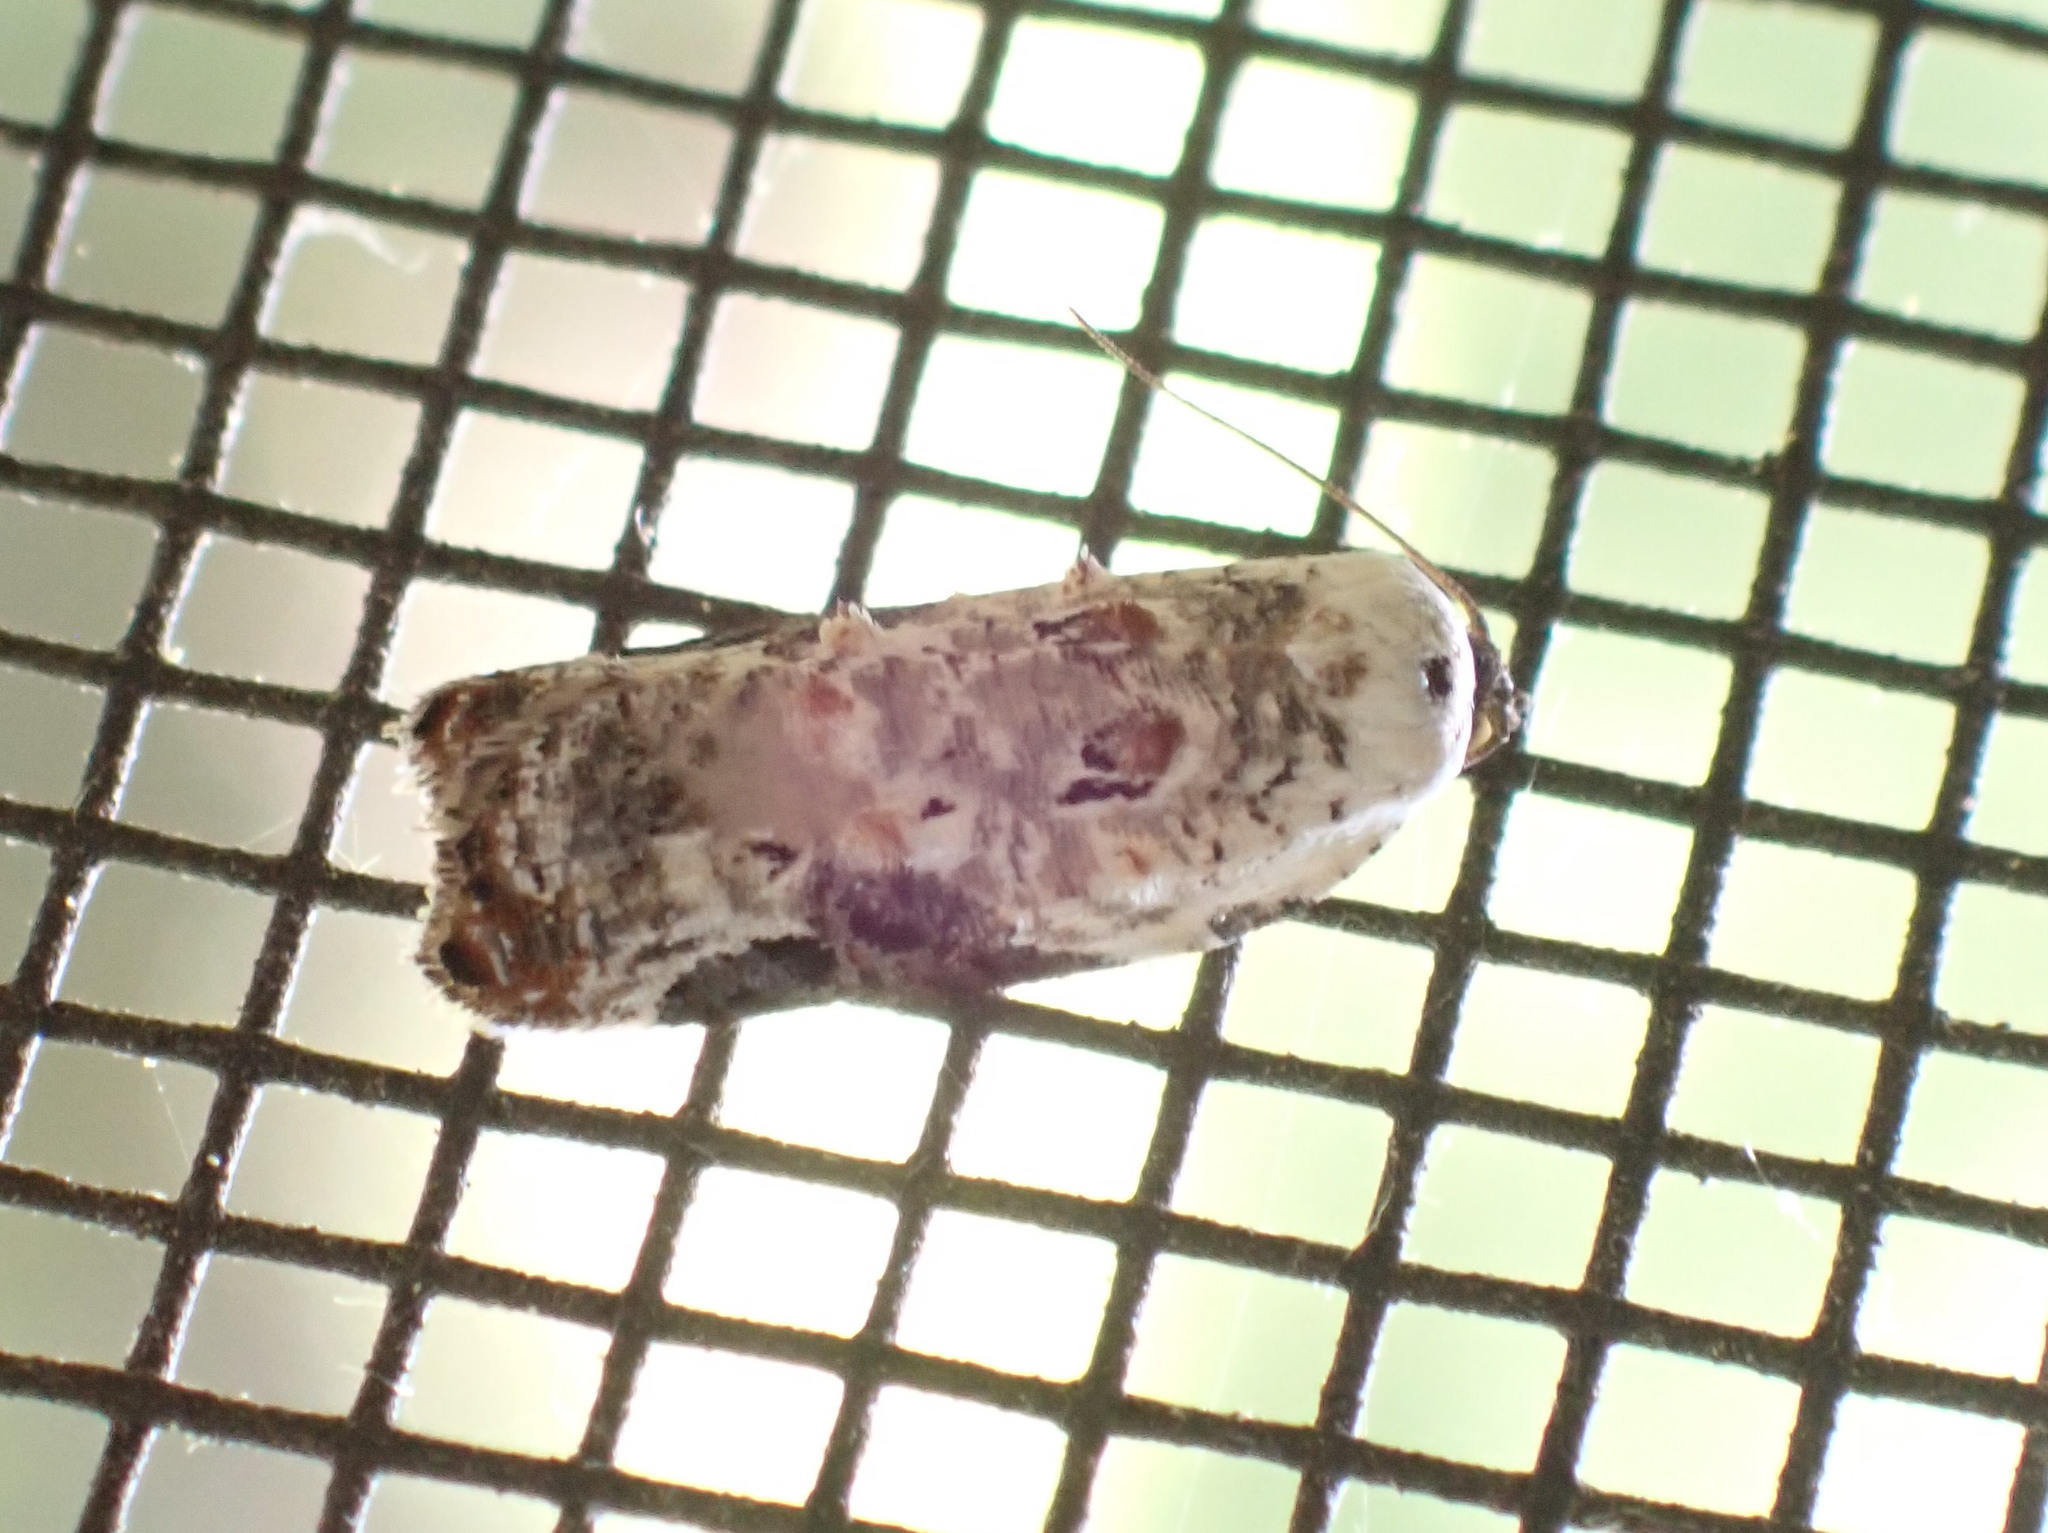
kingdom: Animalia
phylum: Arthropoda
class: Insecta
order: Lepidoptera
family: Tortricidae
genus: Acleris
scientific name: Acleris nivisellana
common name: Snowy-shouldered acleris moth
